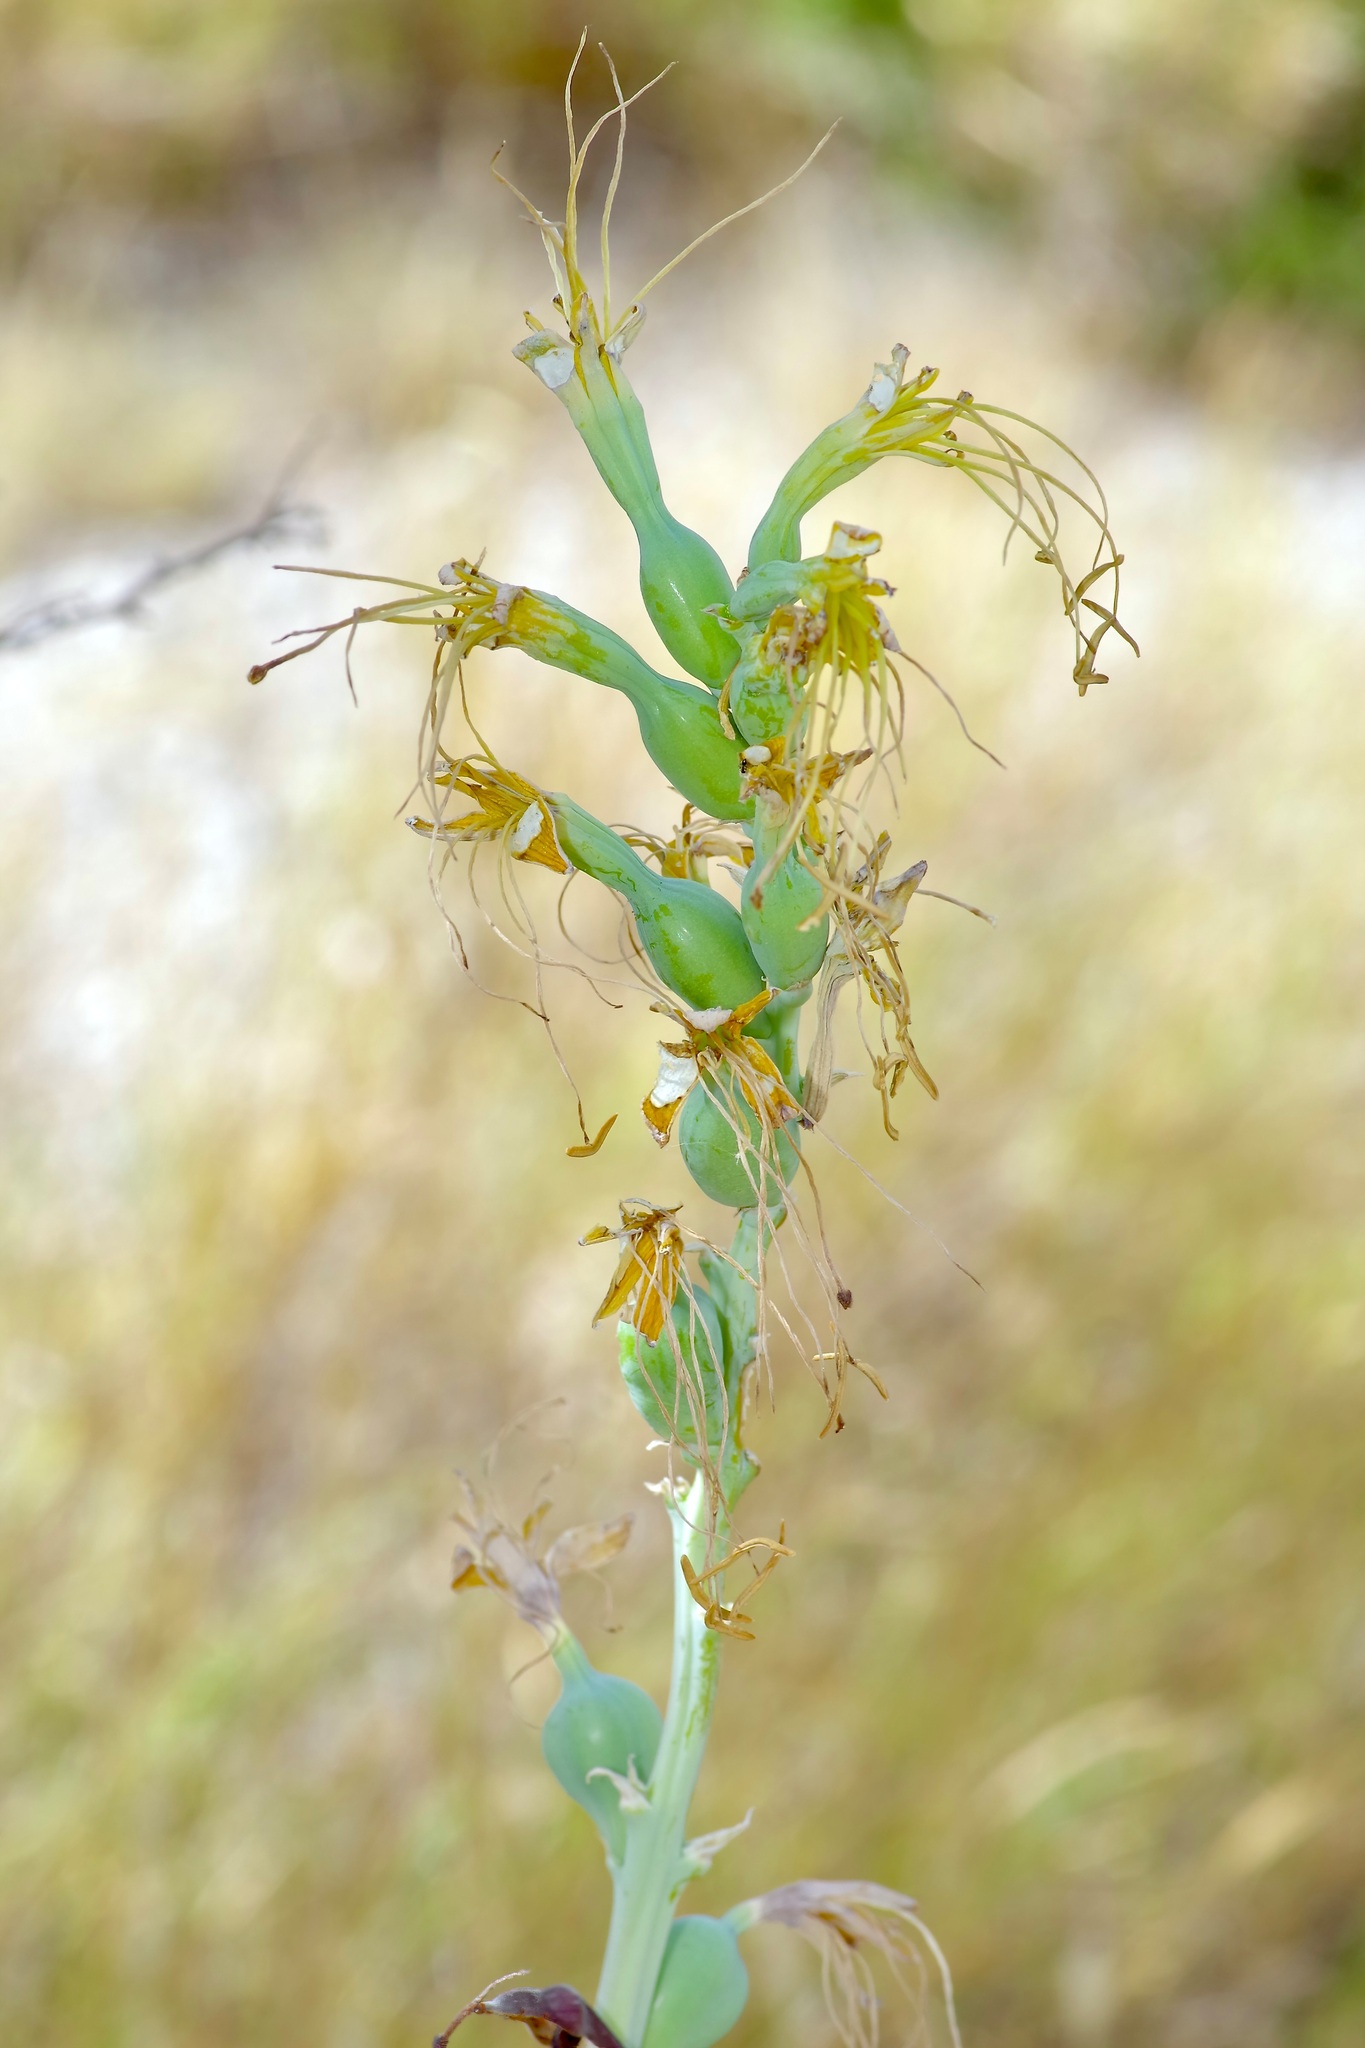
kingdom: Plantae
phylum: Tracheophyta
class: Liliopsida
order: Asparagales
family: Asparagaceae
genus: Agave
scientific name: Agave sileri
